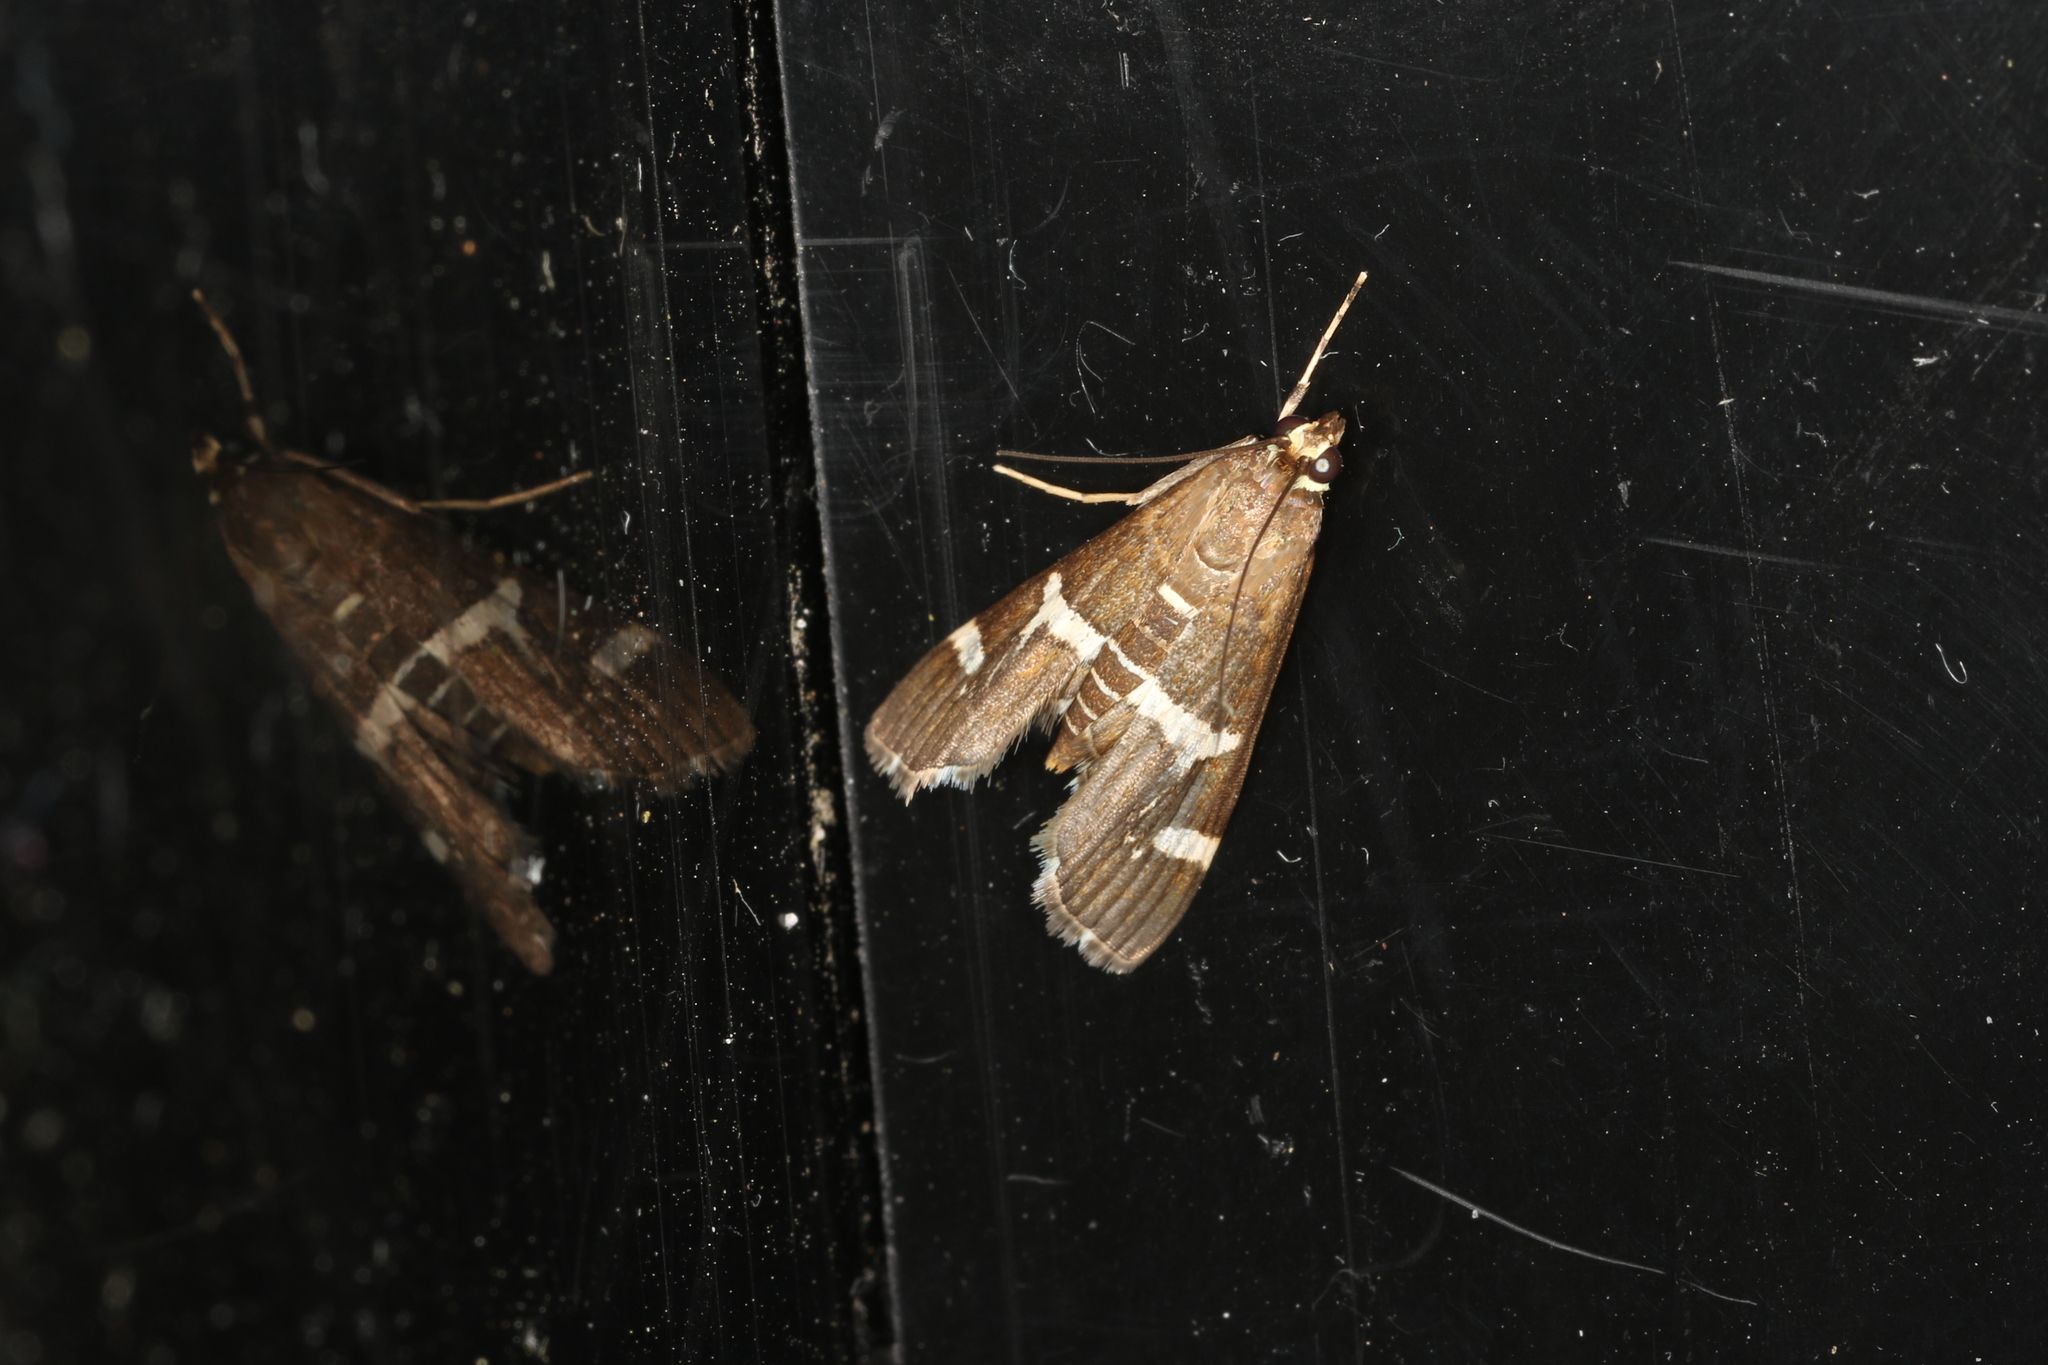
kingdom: Animalia
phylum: Arthropoda
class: Insecta
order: Lepidoptera
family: Crambidae
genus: Spoladea
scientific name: Spoladea recurvalis
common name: Beet webworm moth
